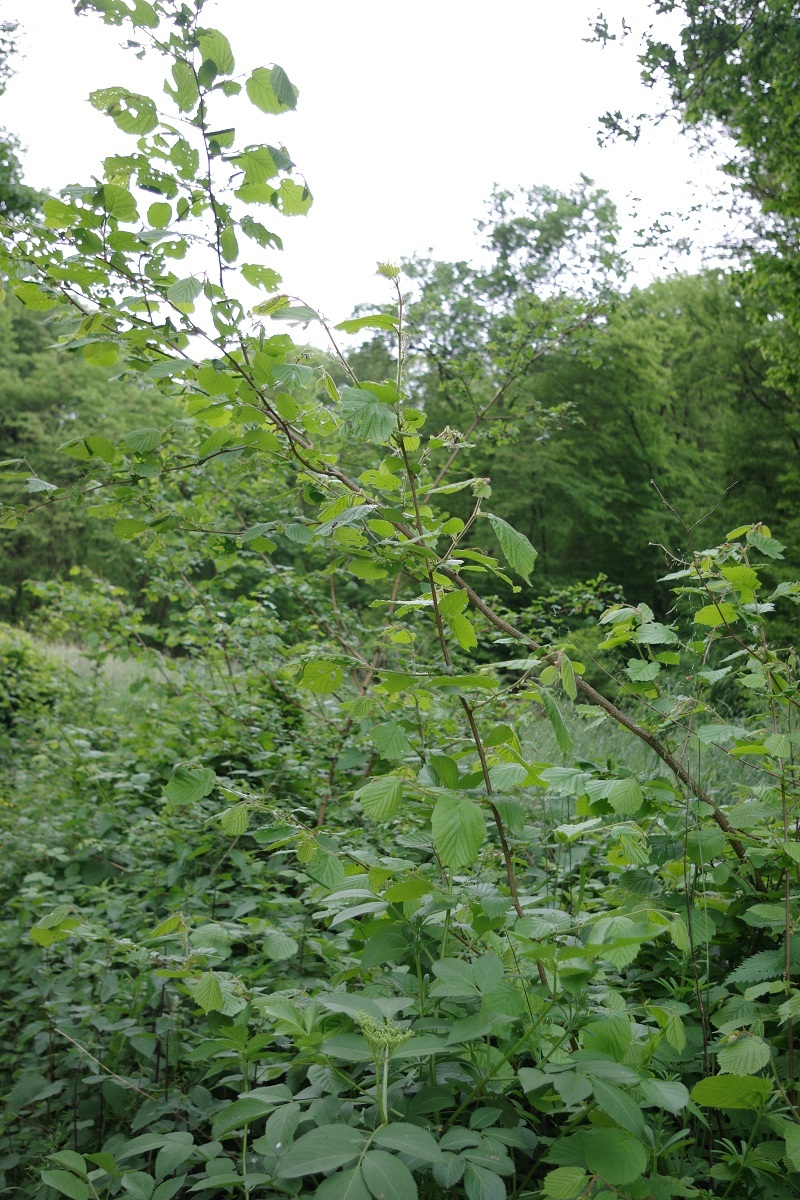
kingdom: Plantae
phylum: Tracheophyta
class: Magnoliopsida
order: Fagales
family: Betulaceae
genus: Corylus
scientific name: Corylus avellana
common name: European hazel
